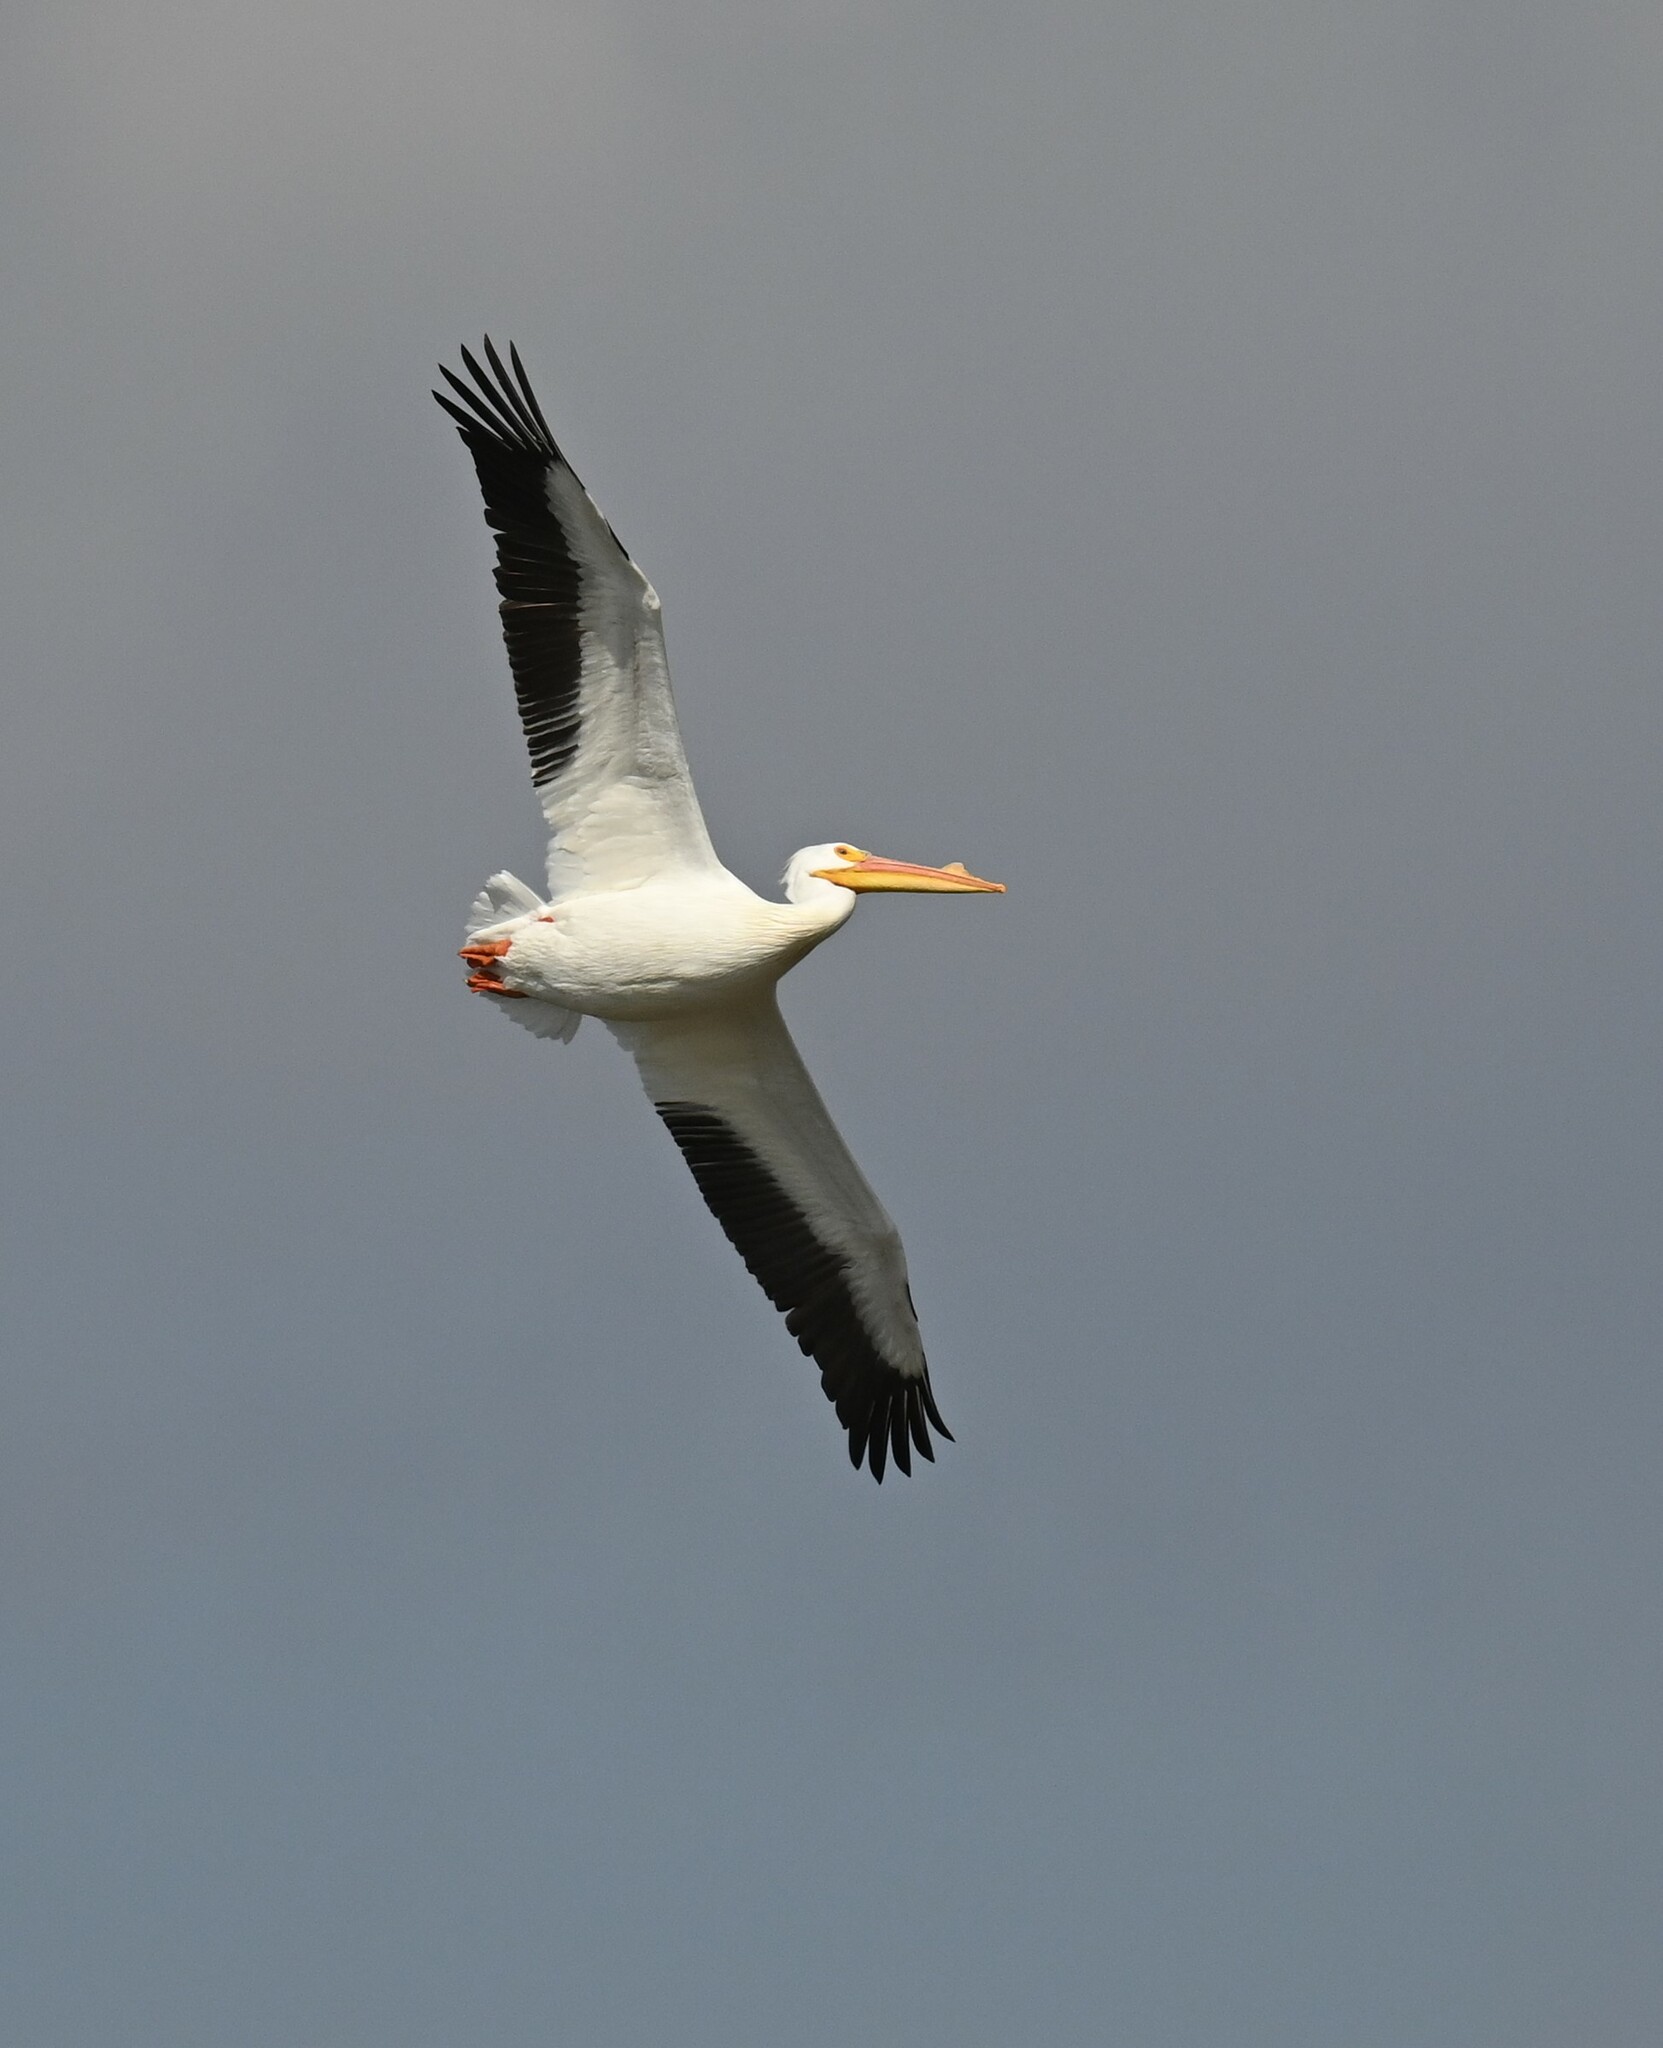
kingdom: Animalia
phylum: Chordata
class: Aves
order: Pelecaniformes
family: Pelecanidae
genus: Pelecanus
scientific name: Pelecanus erythrorhynchos
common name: American white pelican
